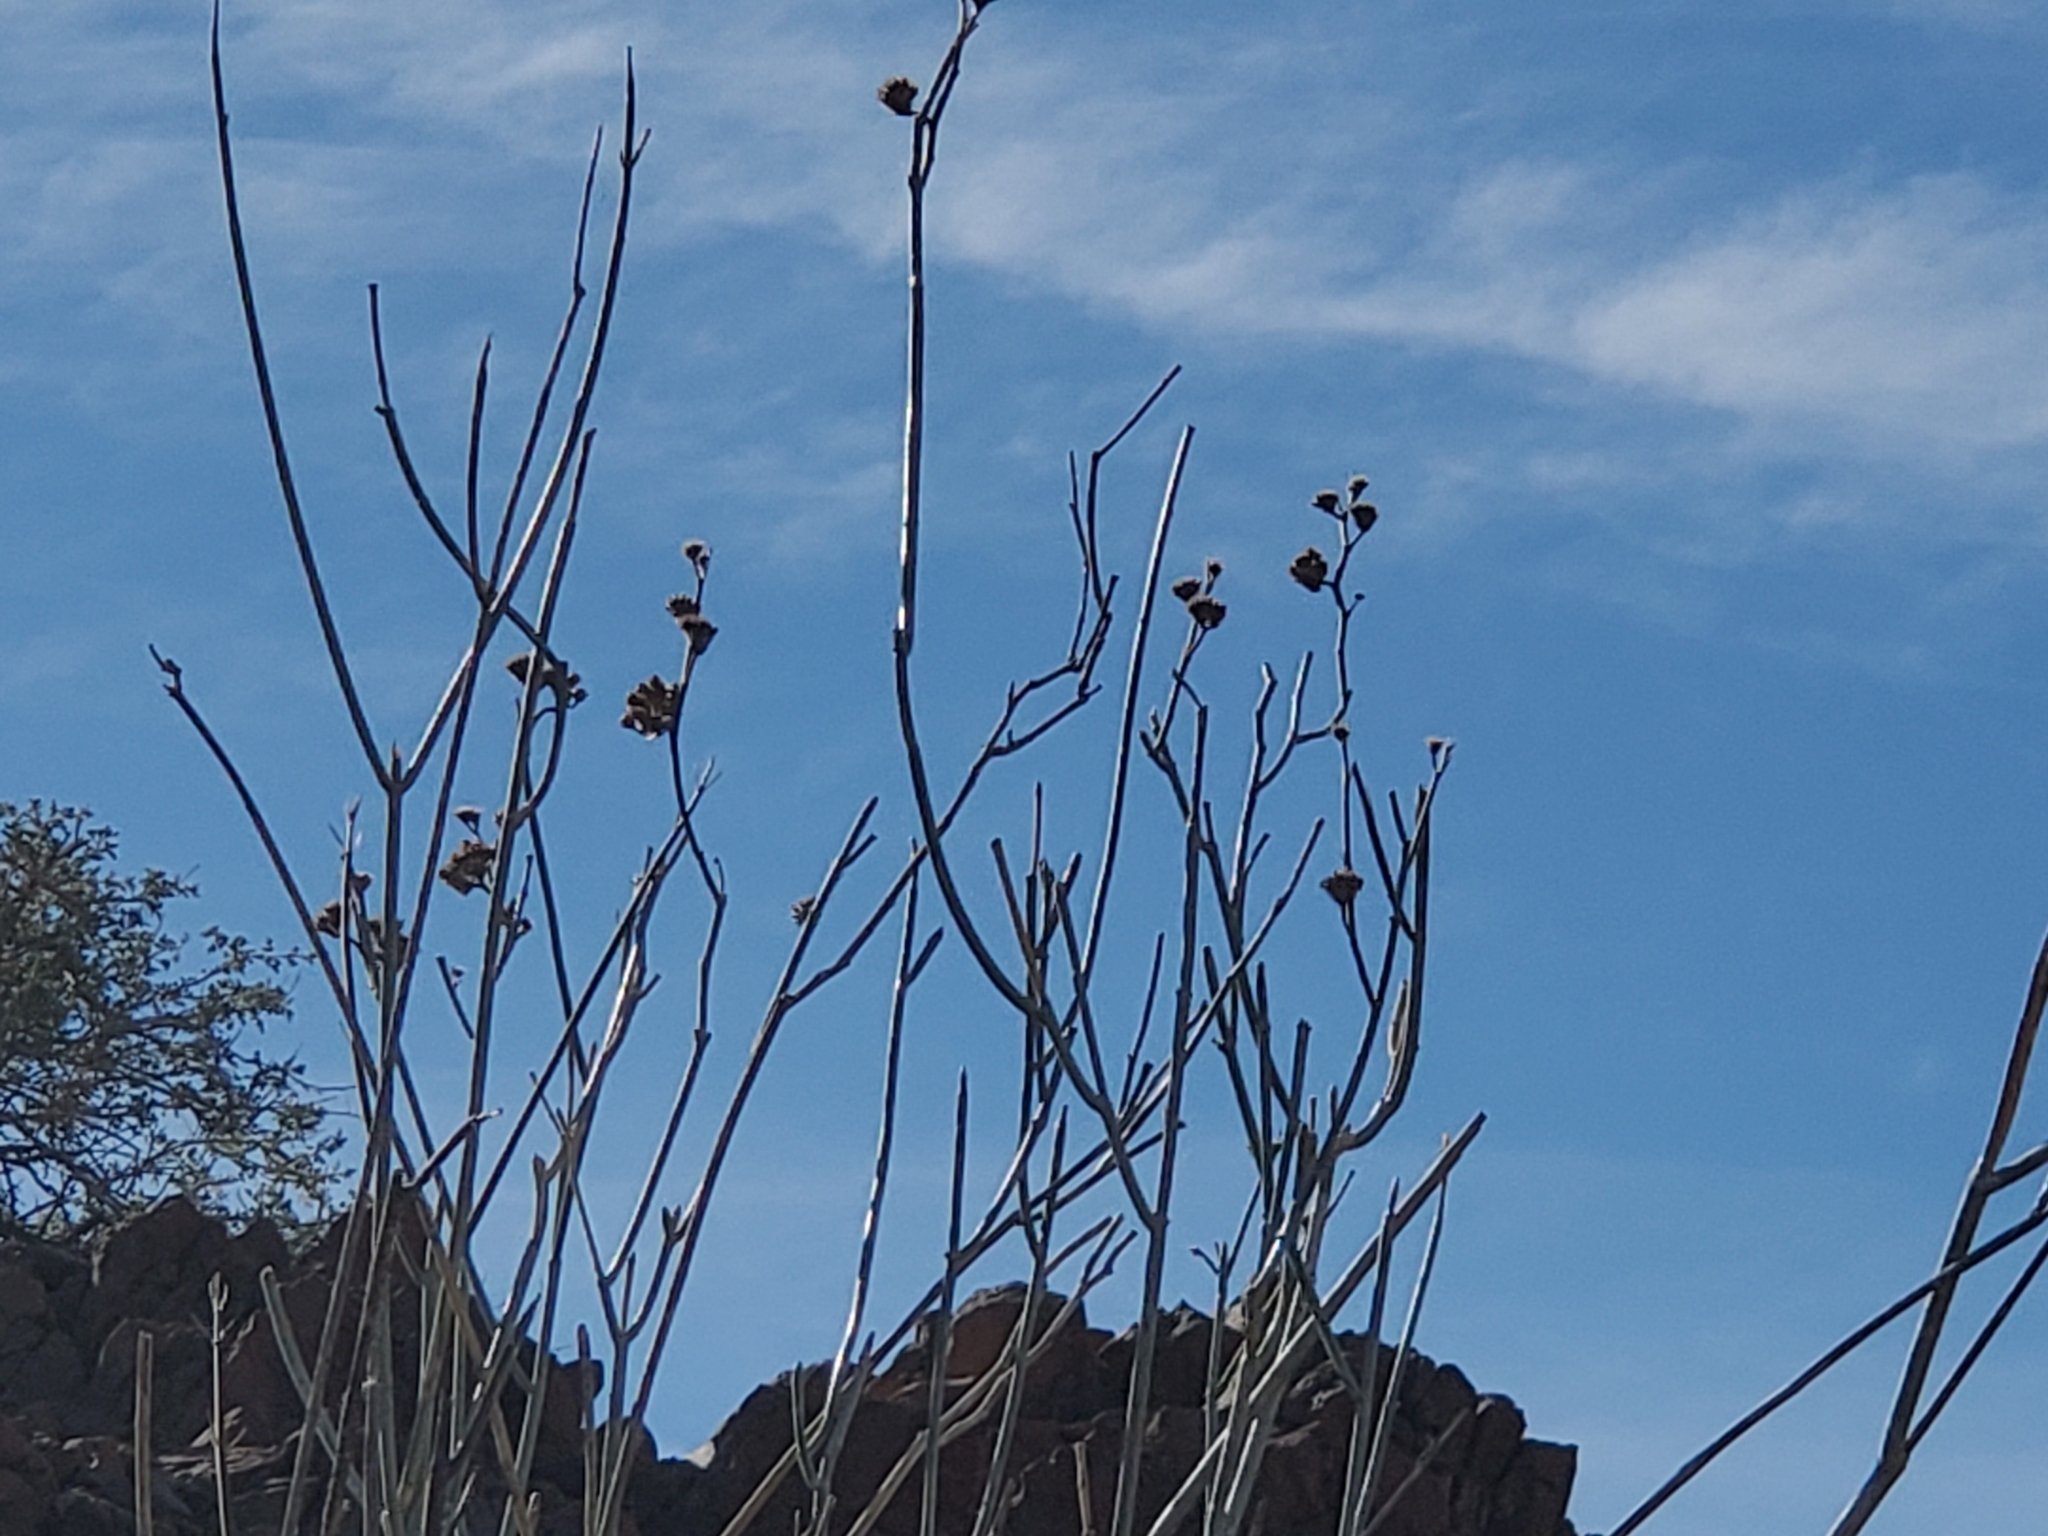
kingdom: Plantae
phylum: Tracheophyta
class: Magnoliopsida
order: Gentianales
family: Apocynaceae
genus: Asclepias
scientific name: Asclepias albicans
